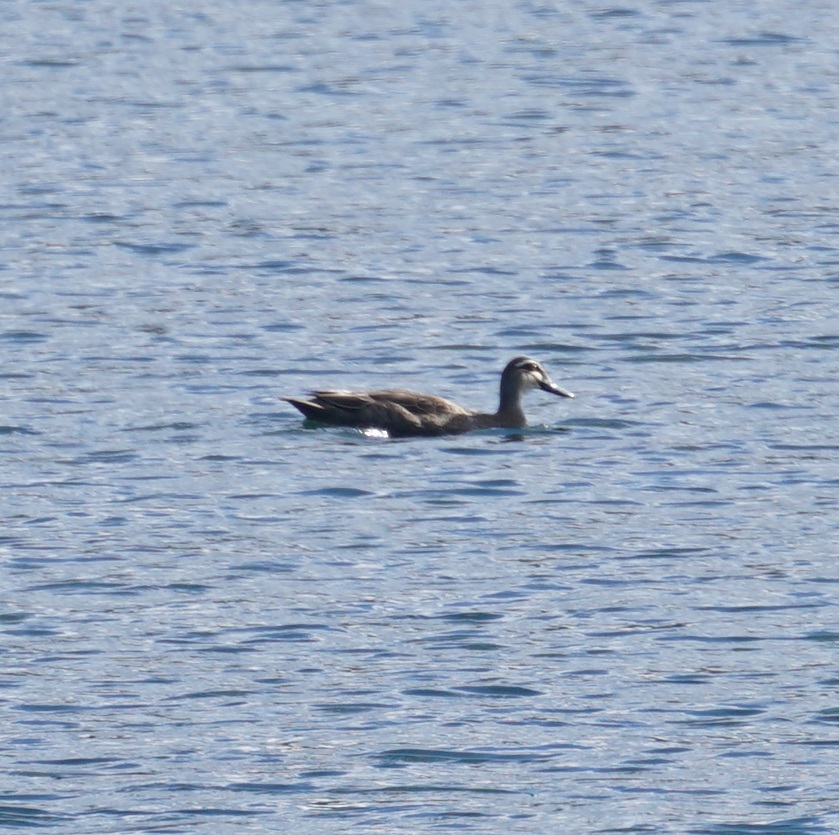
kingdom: Animalia
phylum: Chordata
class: Aves
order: Anseriformes
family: Anatidae
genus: Anas
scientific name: Anas superciliosa
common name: Pacific black duck
